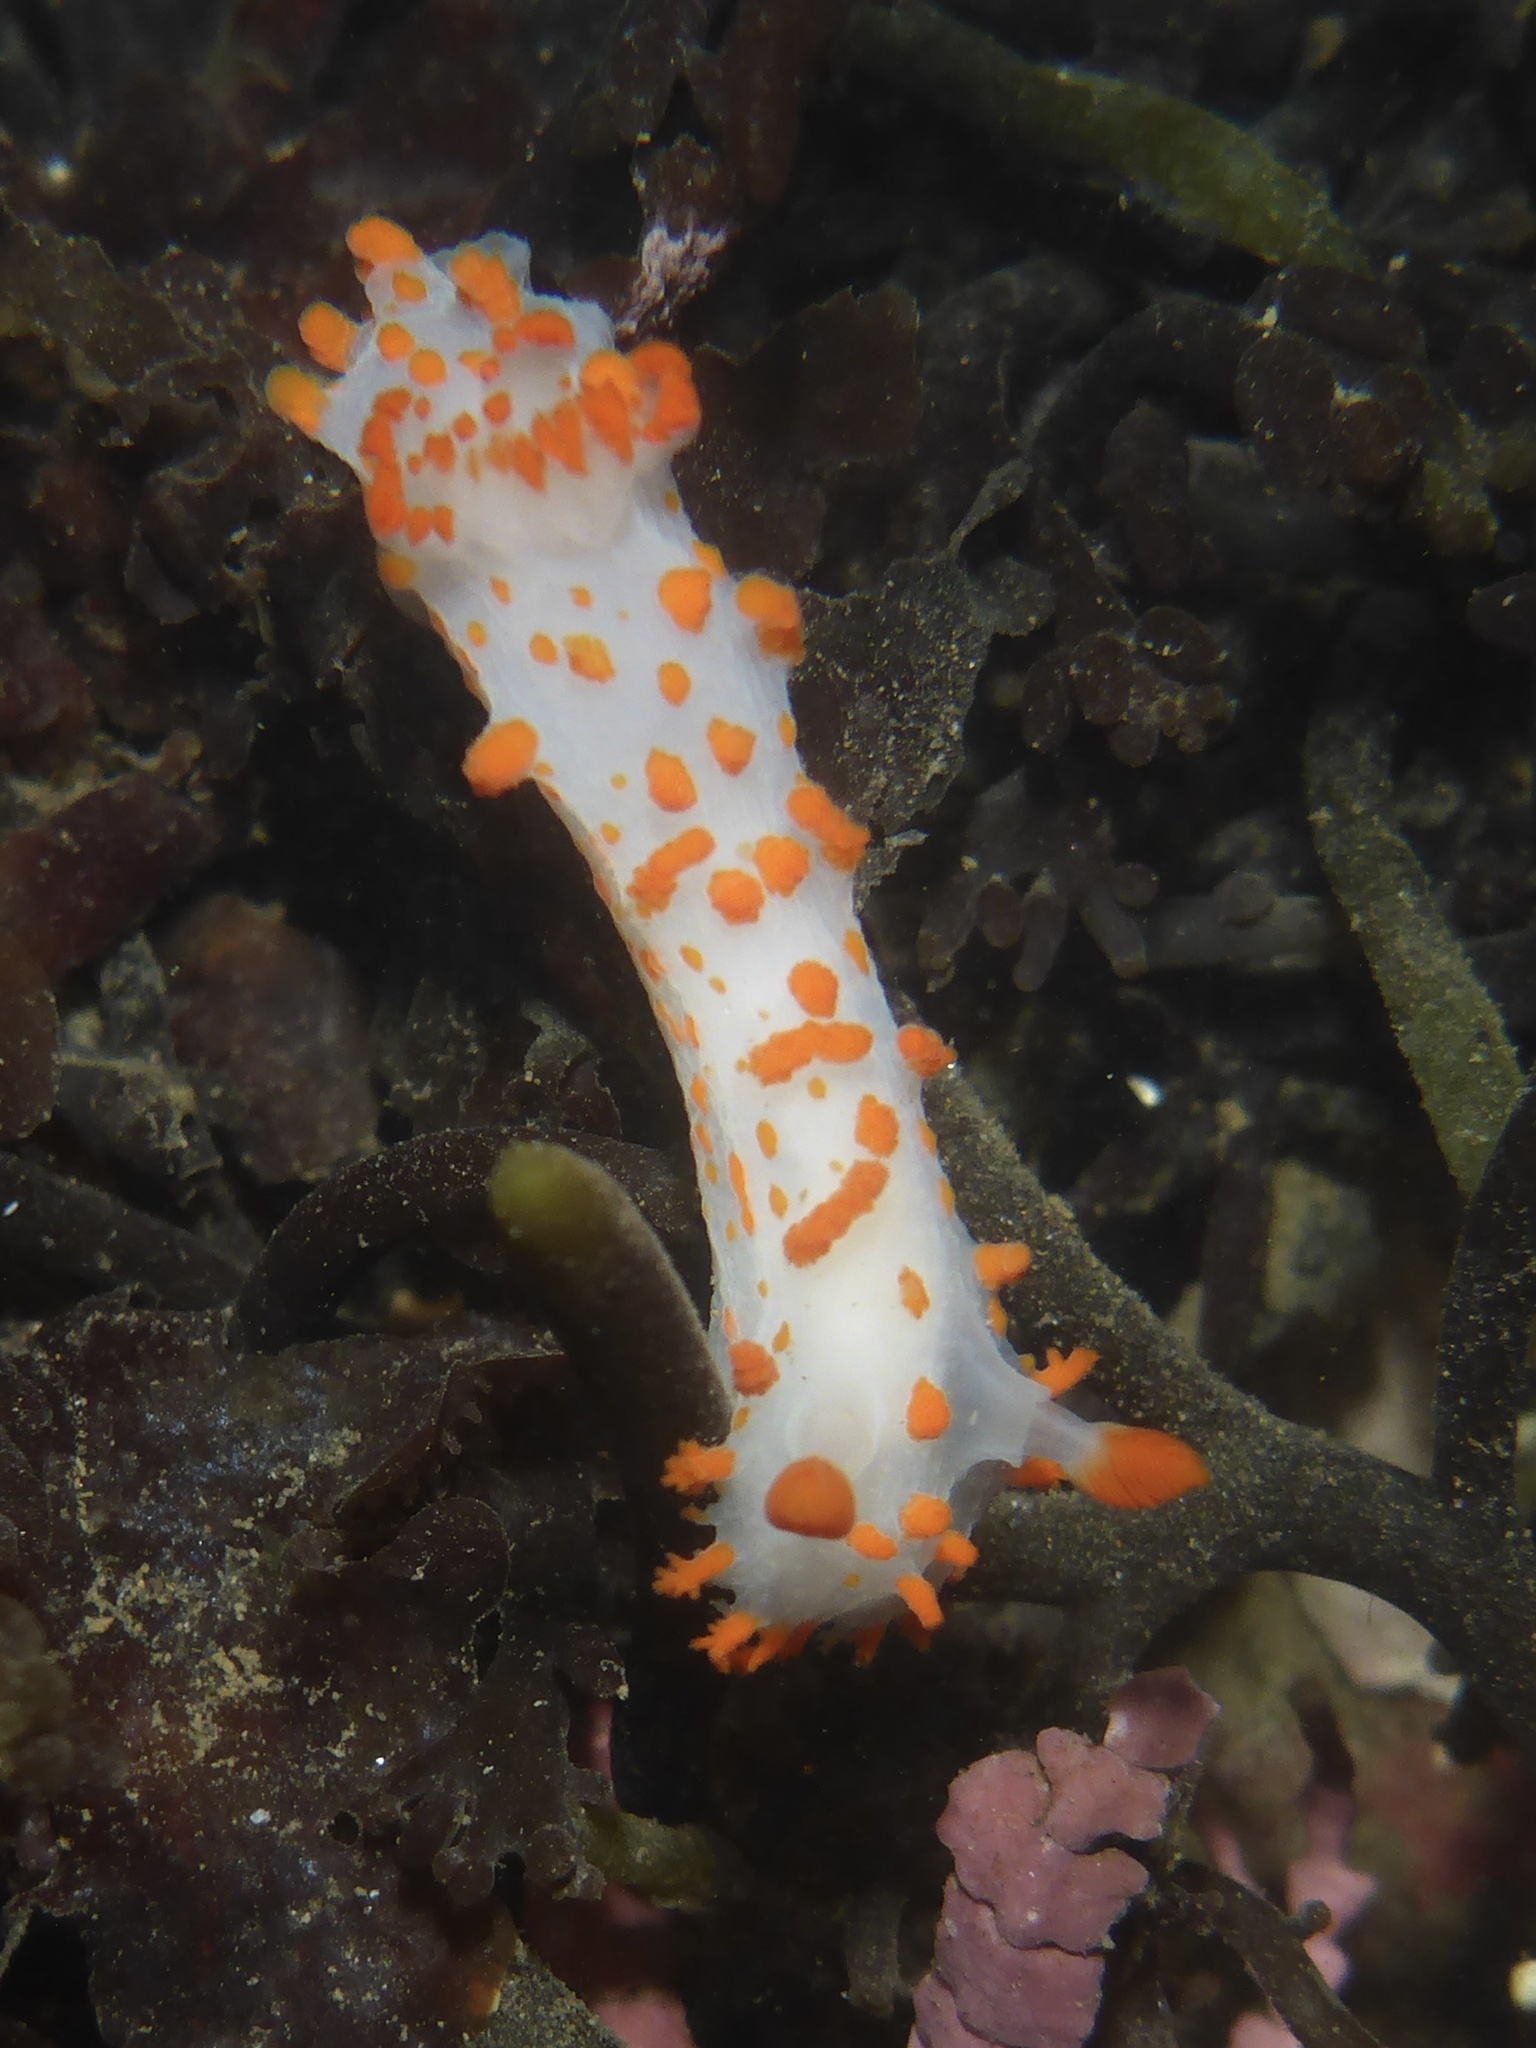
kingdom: Animalia
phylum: Mollusca
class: Gastropoda
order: Nudibranchia
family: Polyceridae
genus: Triopha
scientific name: Triopha catalinae
